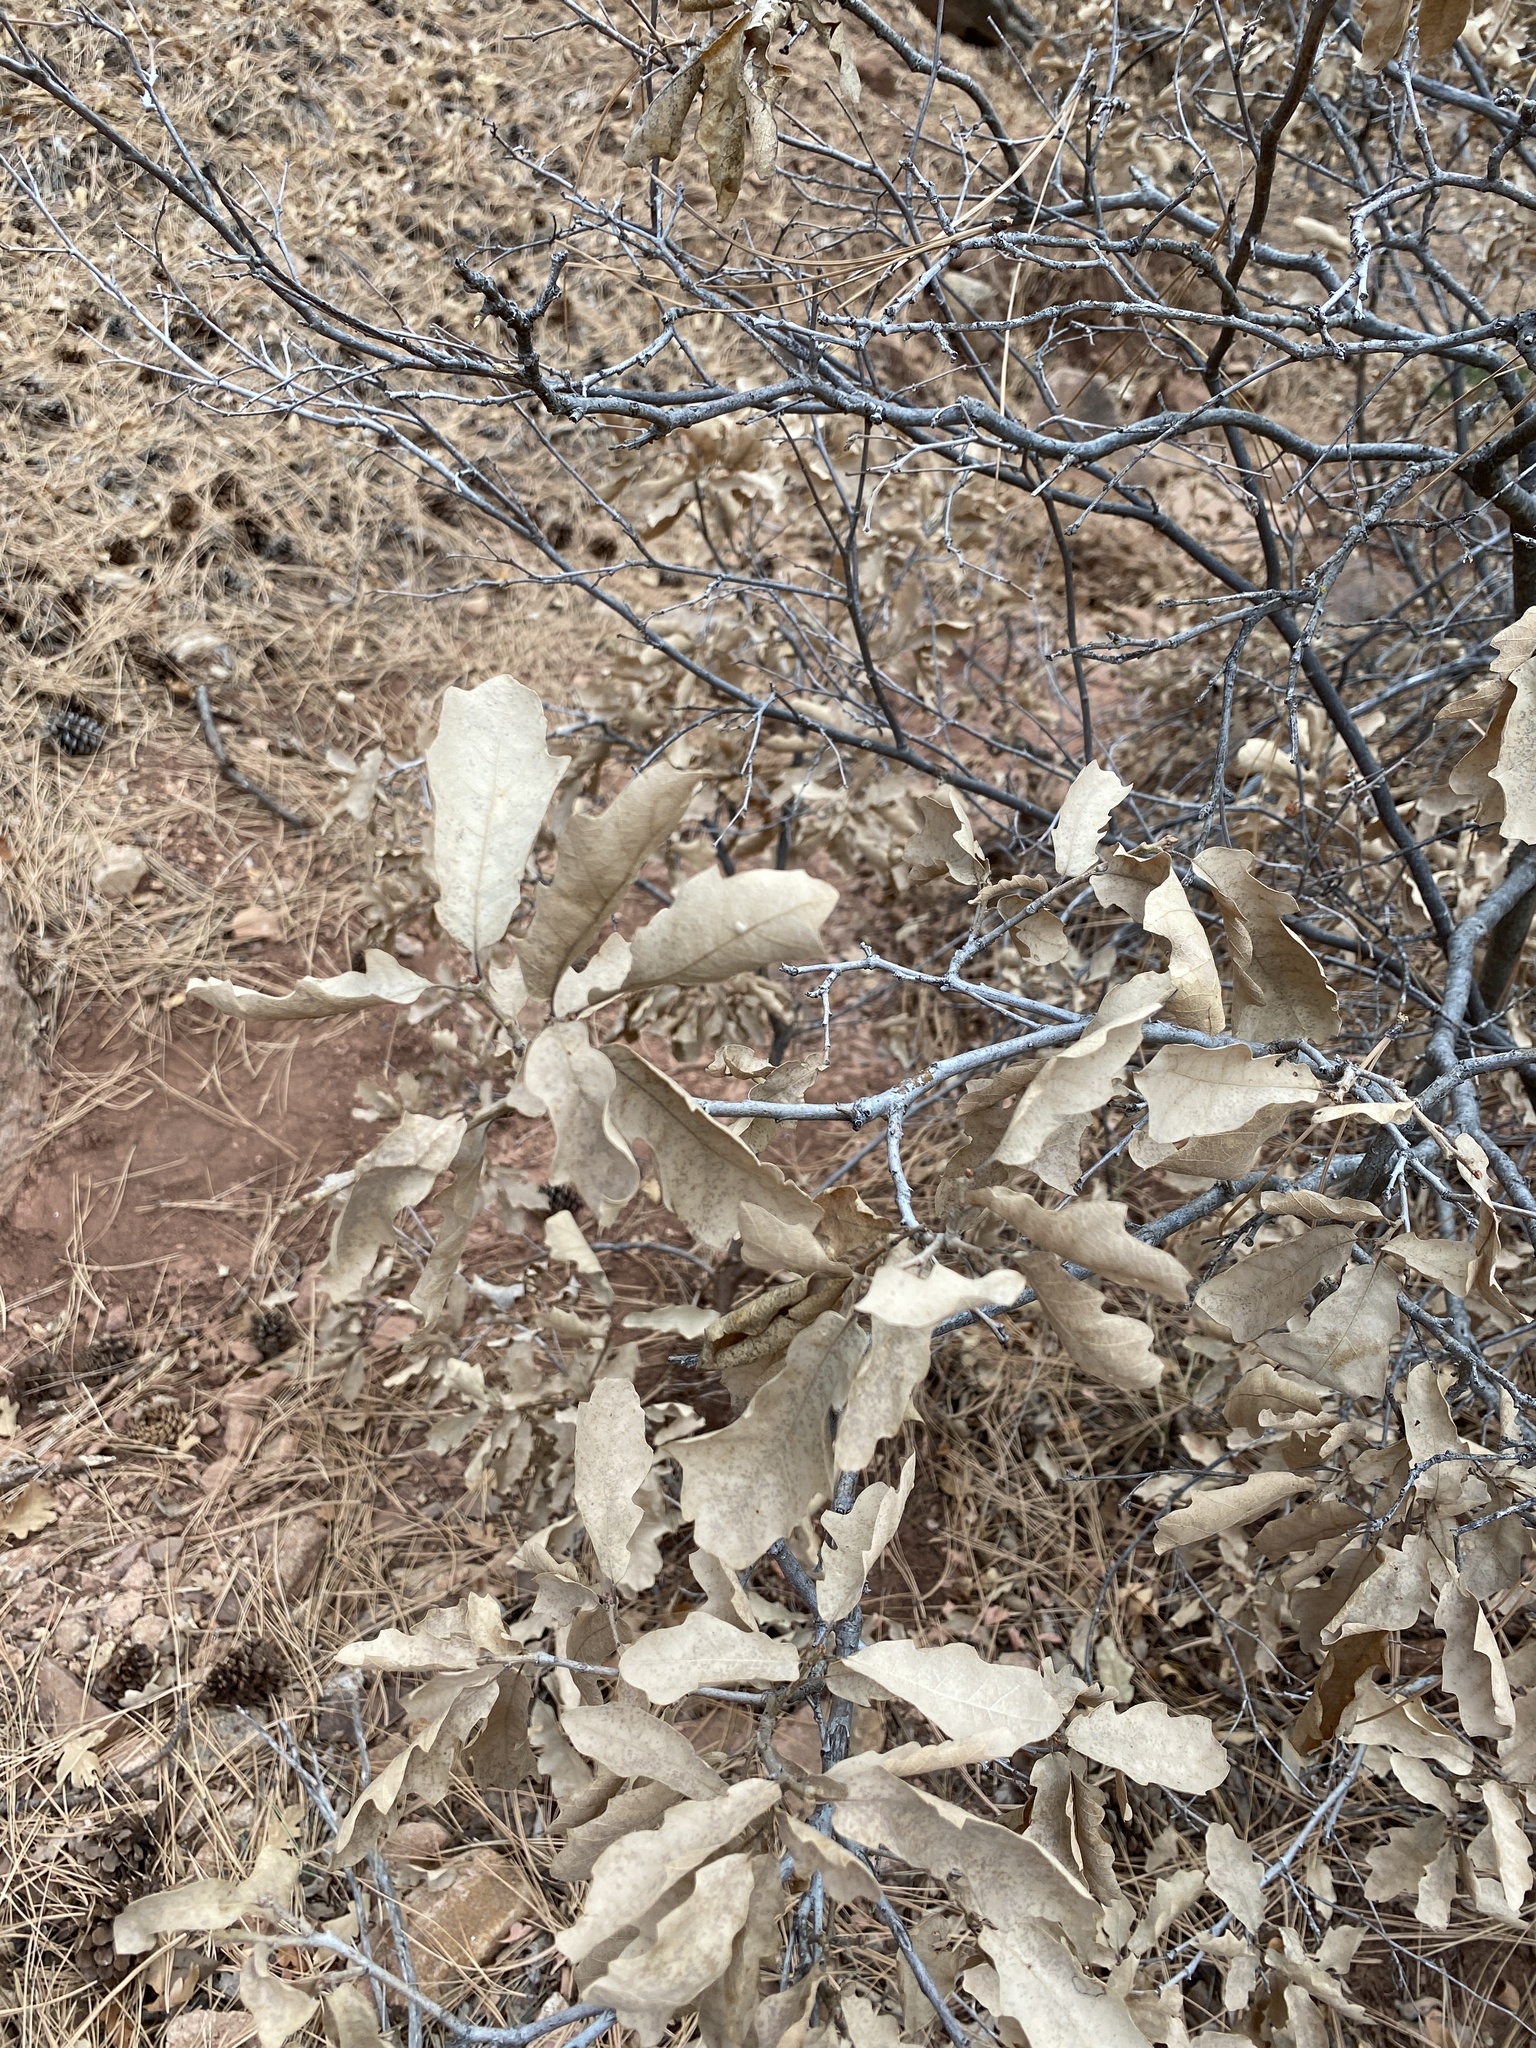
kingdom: Plantae
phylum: Tracheophyta
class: Magnoliopsida
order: Fagales
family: Fagaceae
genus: Quercus
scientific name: Quercus undulata
